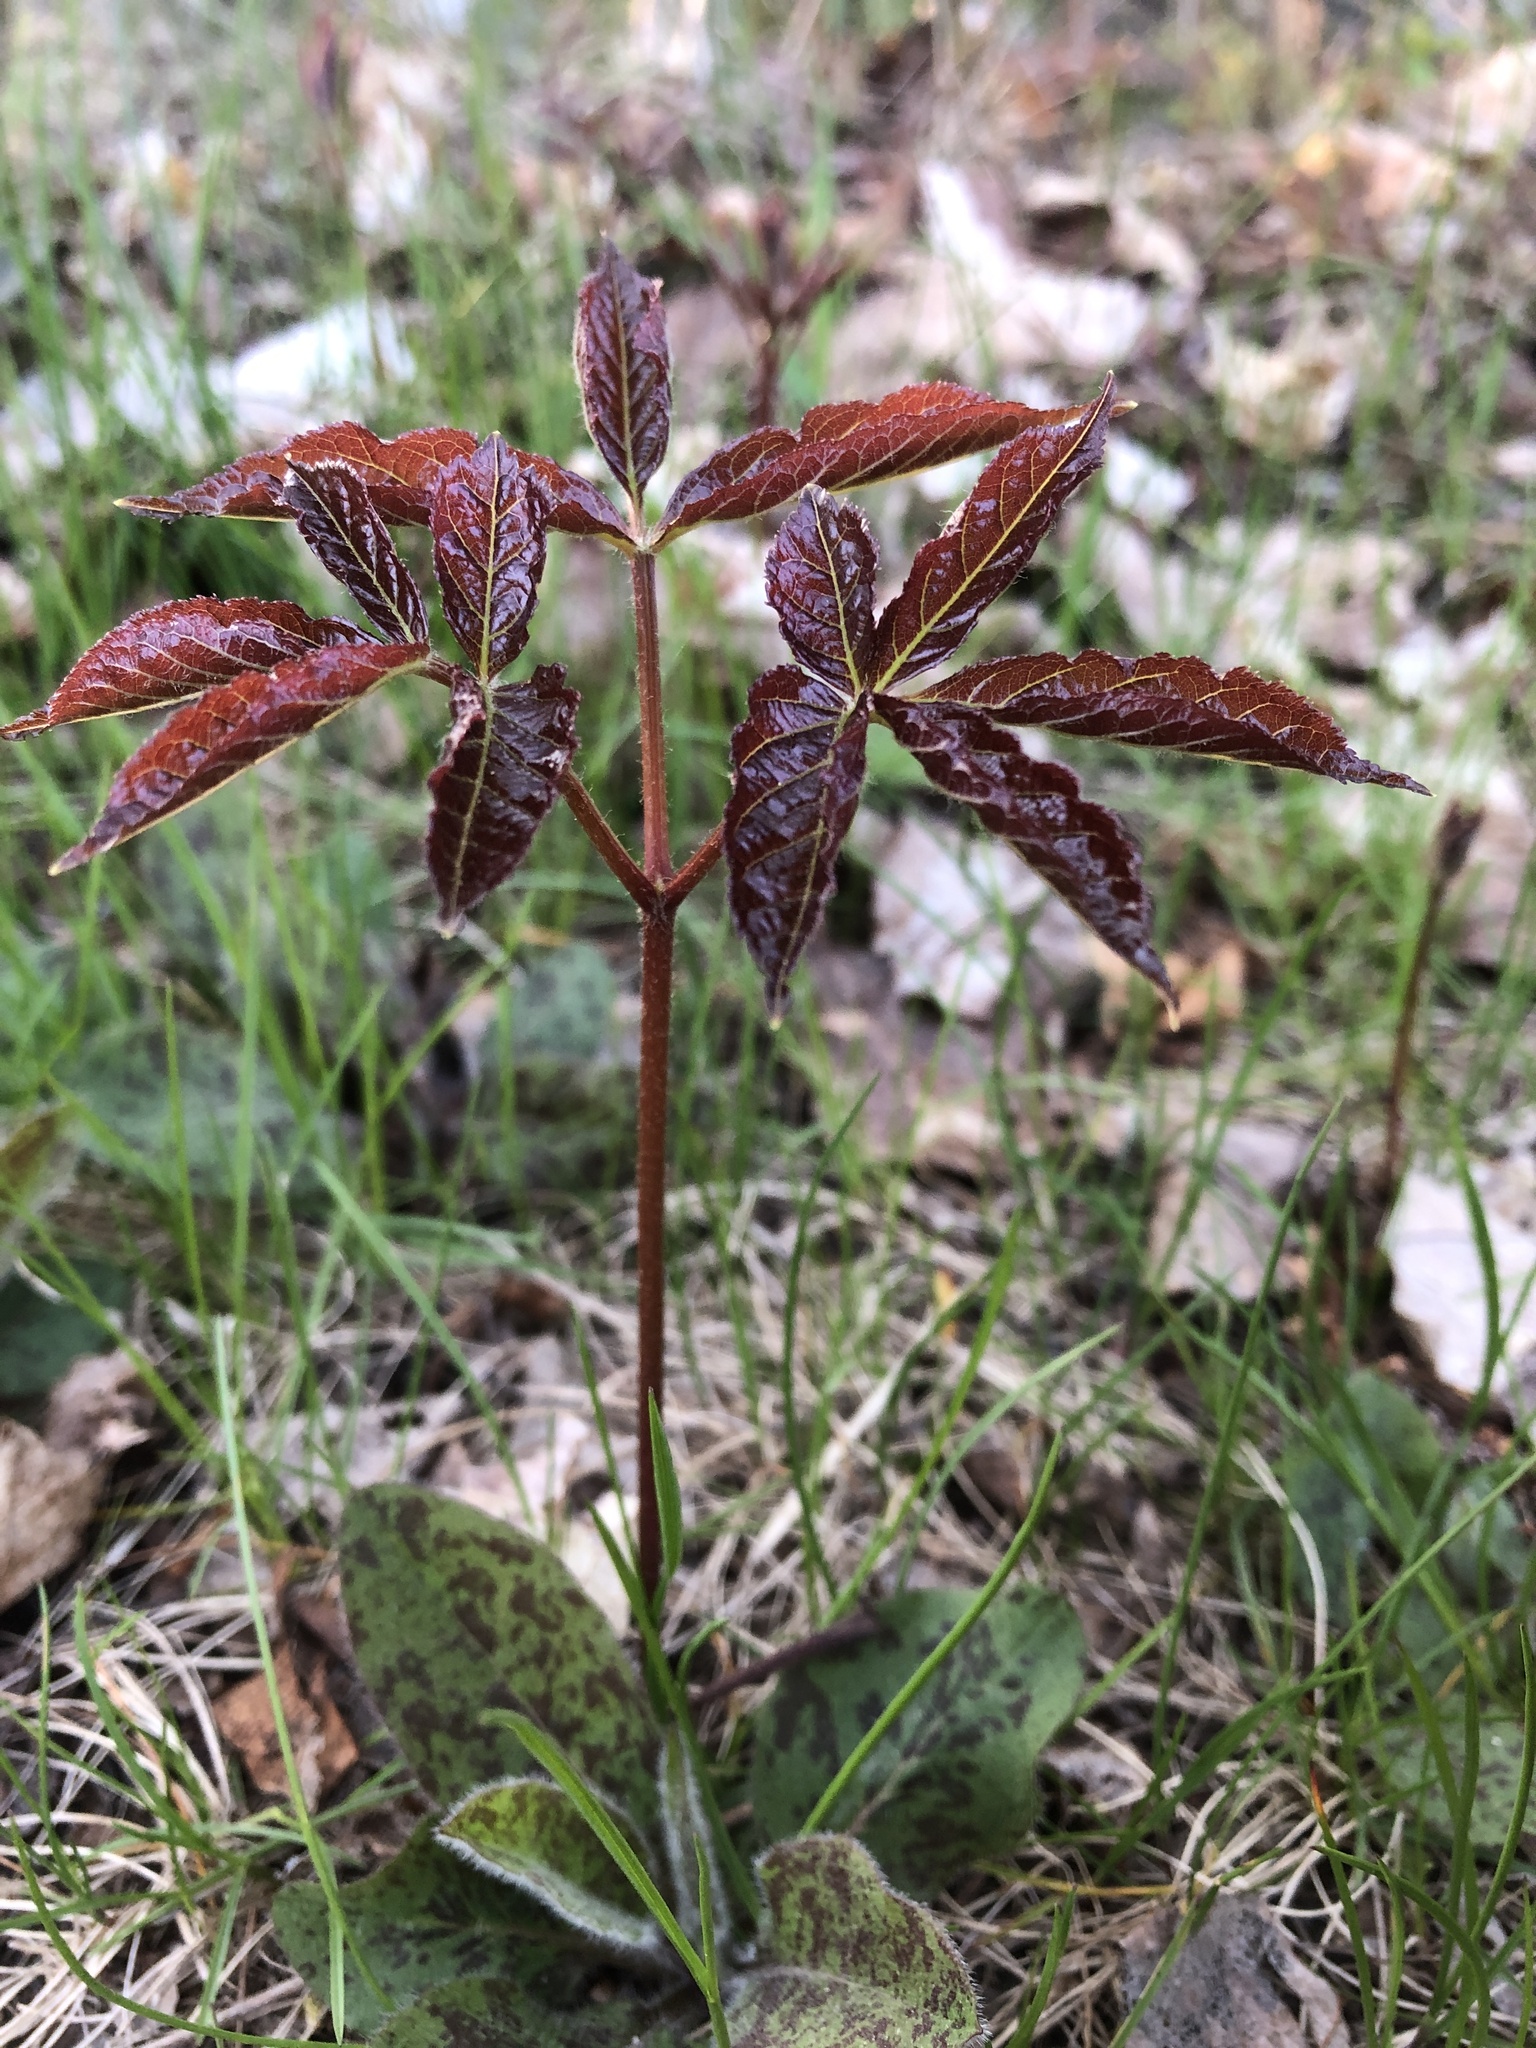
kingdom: Plantae
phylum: Tracheophyta
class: Magnoliopsida
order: Apiales
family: Araliaceae
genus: Aralia
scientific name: Aralia nudicaulis
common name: Wild sarsaparilla
